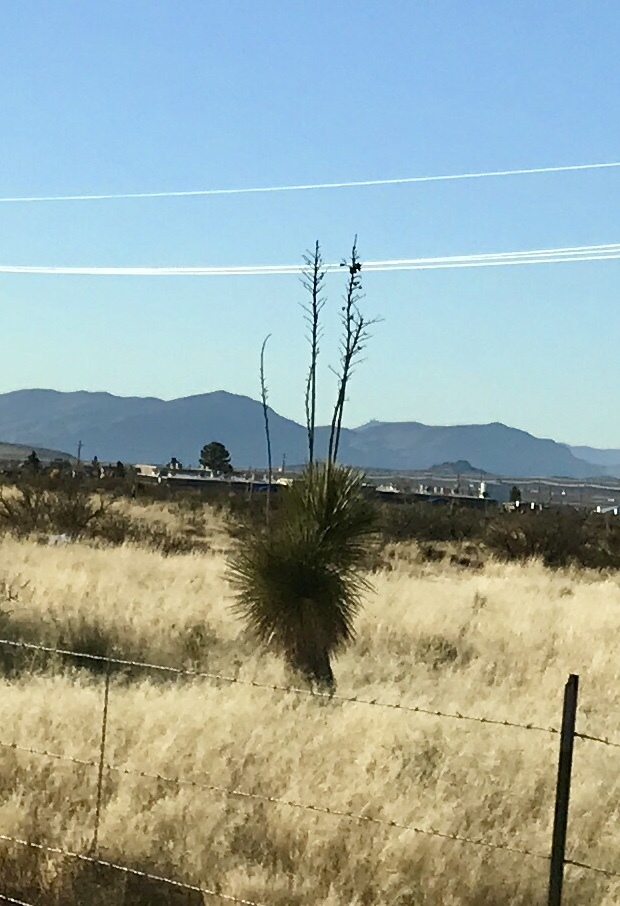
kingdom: Plantae
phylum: Tracheophyta
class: Liliopsida
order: Asparagales
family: Asparagaceae
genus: Yucca
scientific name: Yucca elata
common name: Palmella
